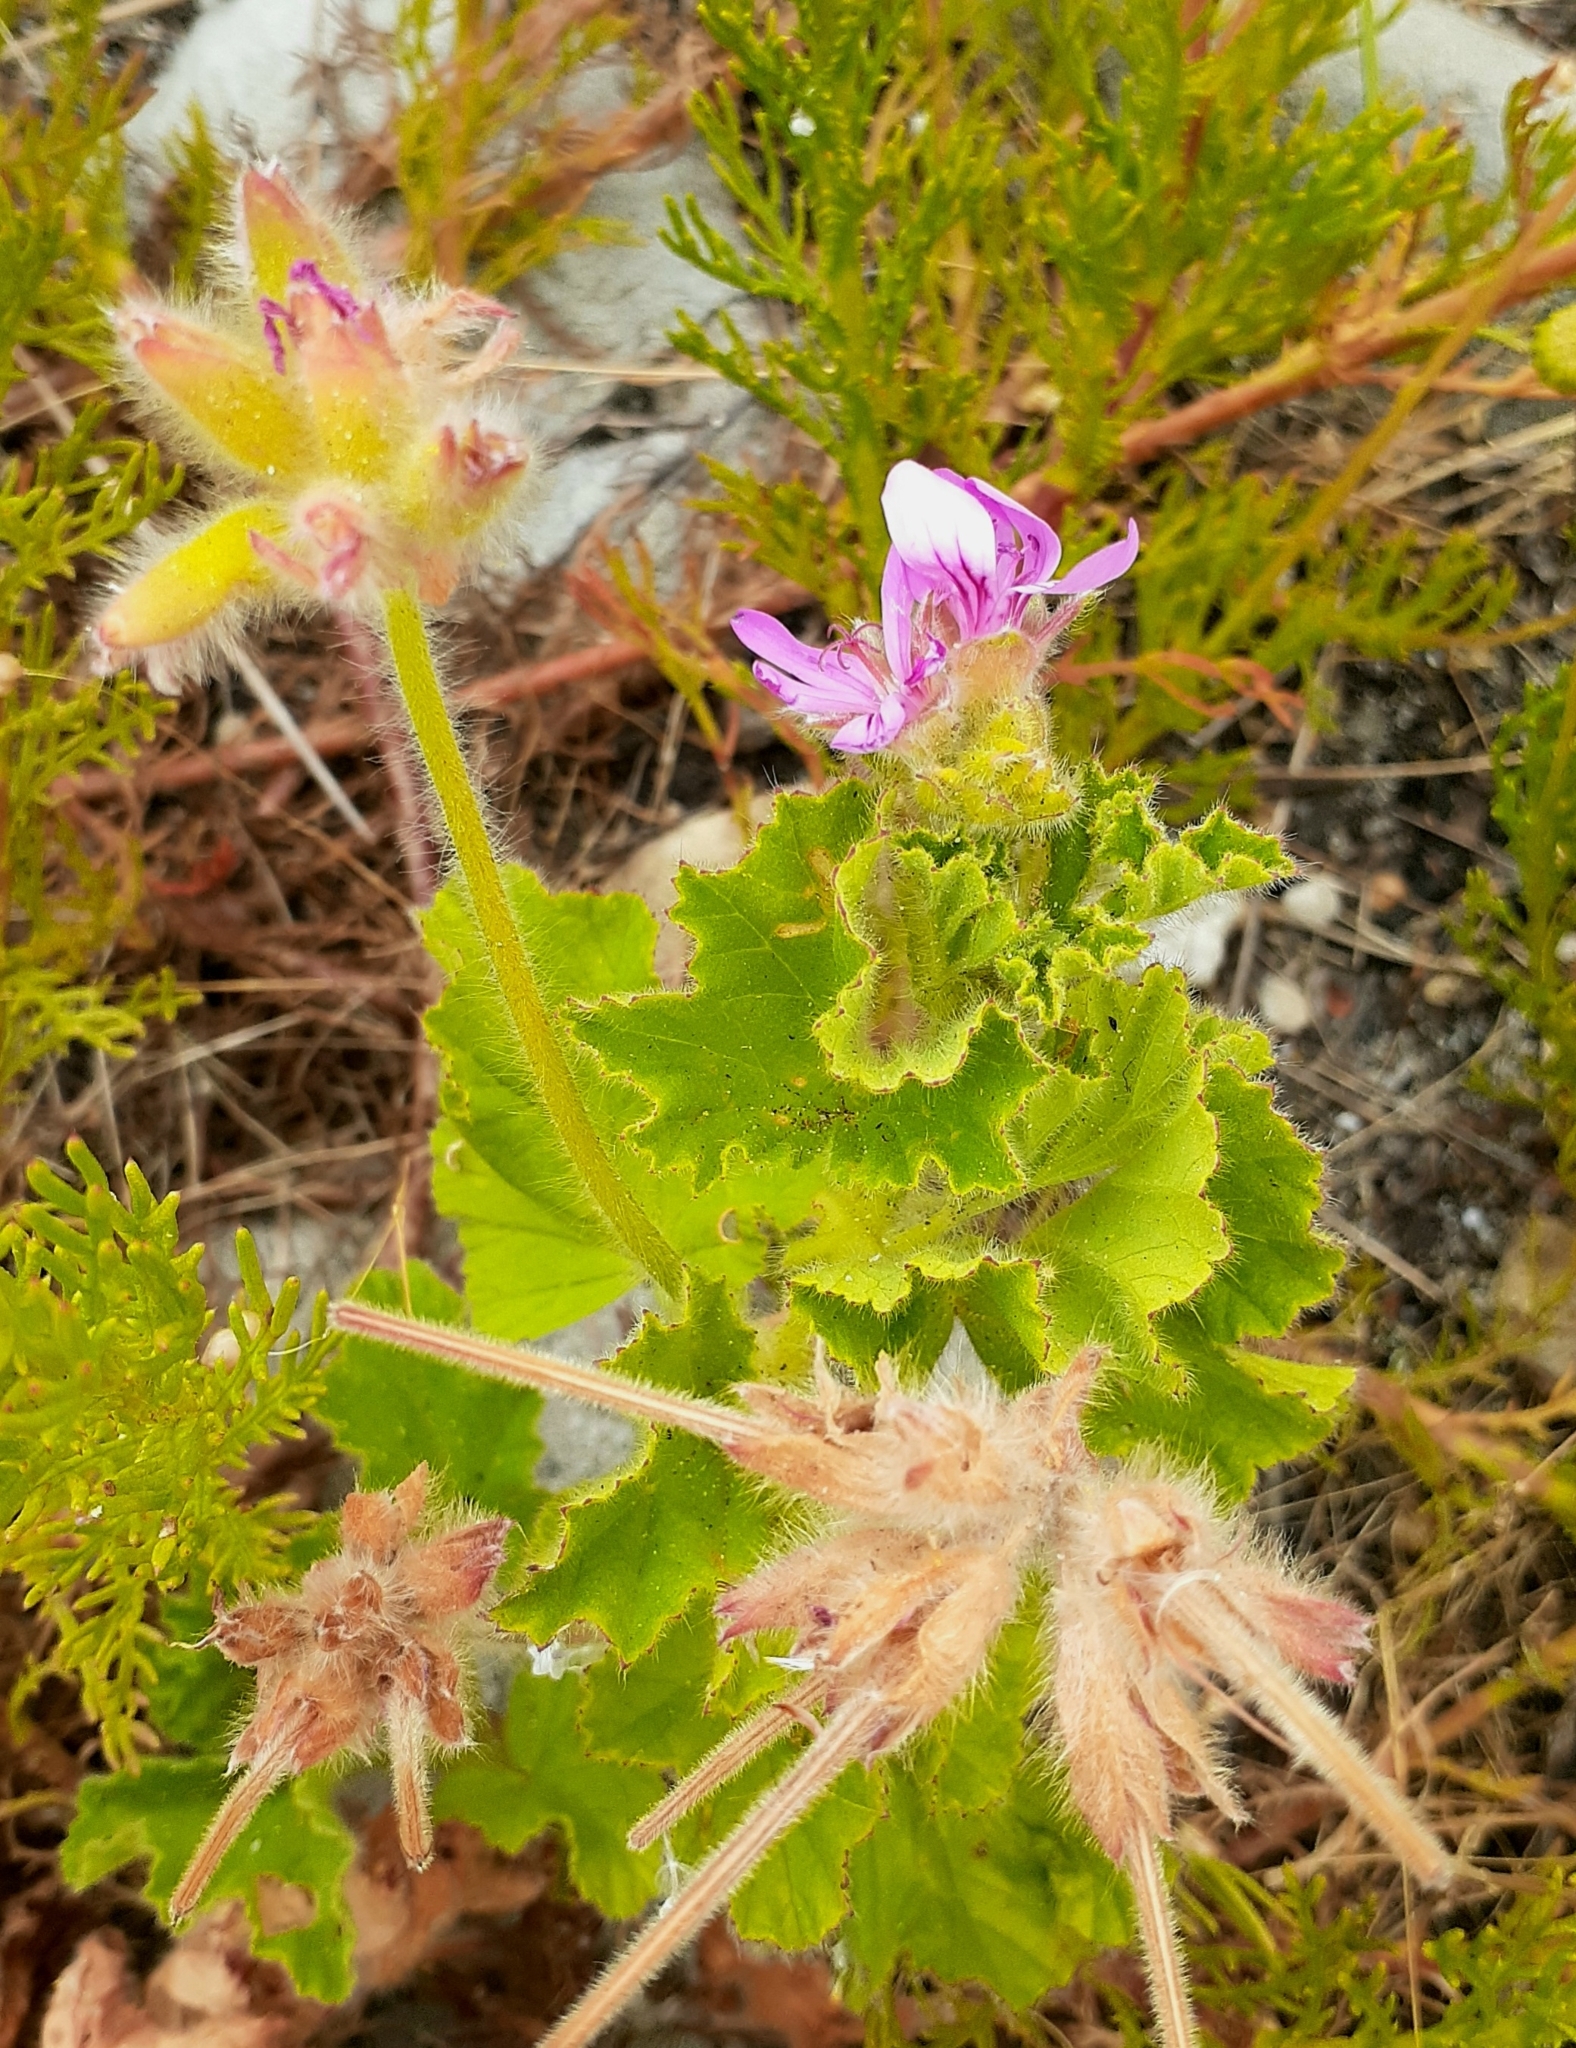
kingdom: Plantae
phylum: Tracheophyta
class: Magnoliopsida
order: Geraniales
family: Geraniaceae
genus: Pelargonium
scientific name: Pelargonium capitatum
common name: Rose scented geranium
